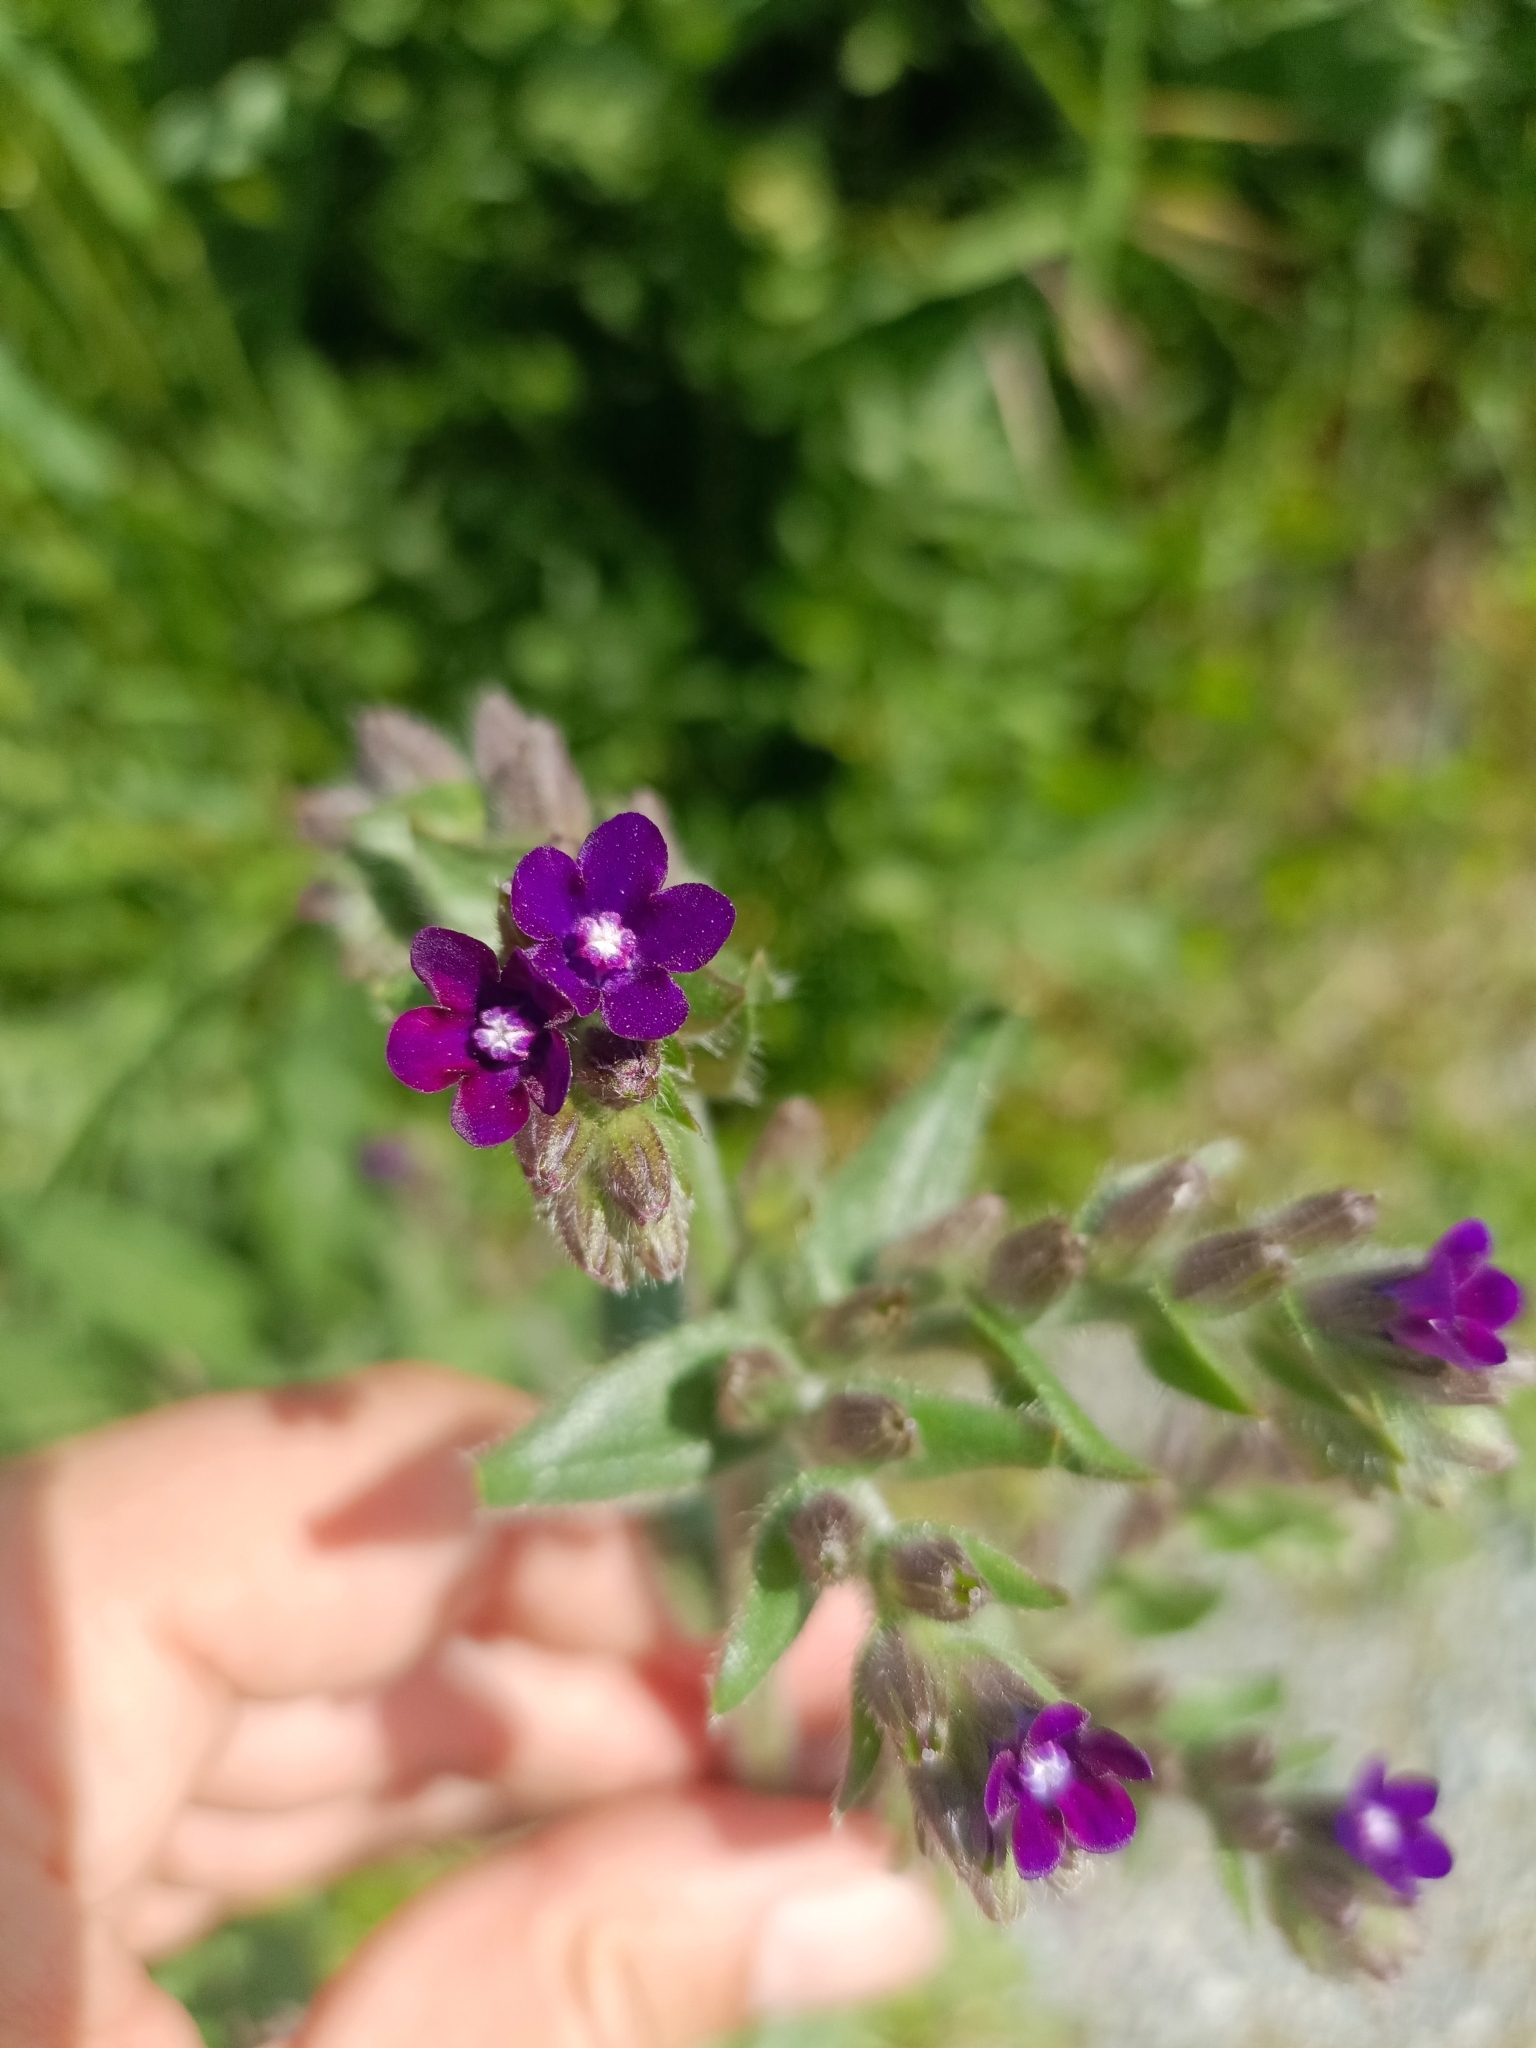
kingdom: Plantae
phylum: Tracheophyta
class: Magnoliopsida
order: Boraginales
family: Boraginaceae
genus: Anchusa
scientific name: Anchusa officinalis
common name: Alkanet
